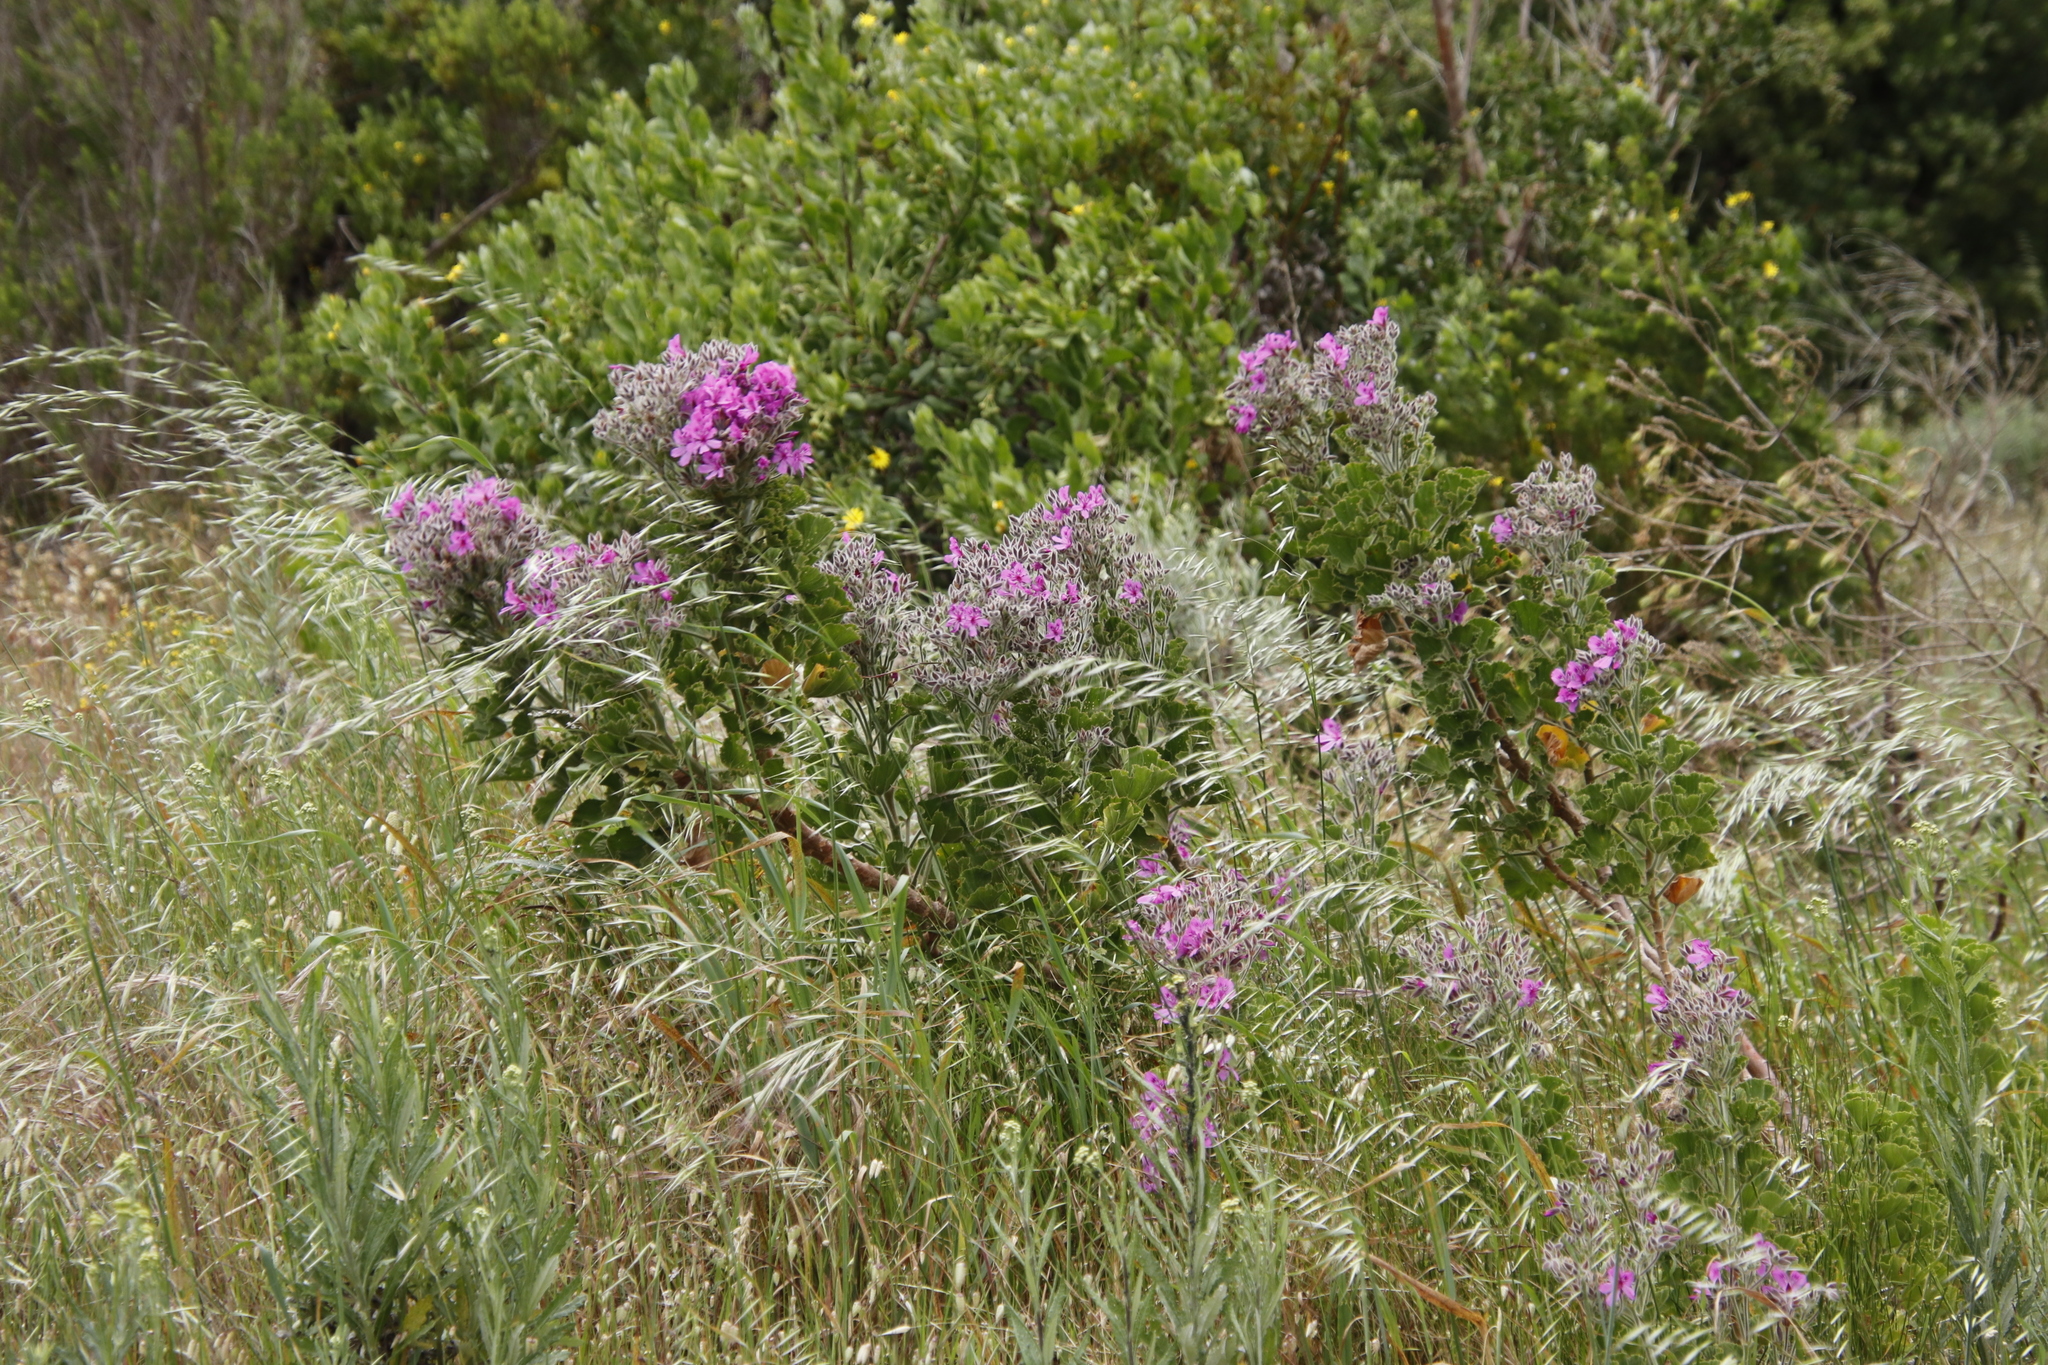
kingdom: Plantae
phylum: Tracheophyta
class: Magnoliopsida
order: Geraniales
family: Geraniaceae
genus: Pelargonium
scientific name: Pelargonium cucullatum
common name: Tree pelargonium
